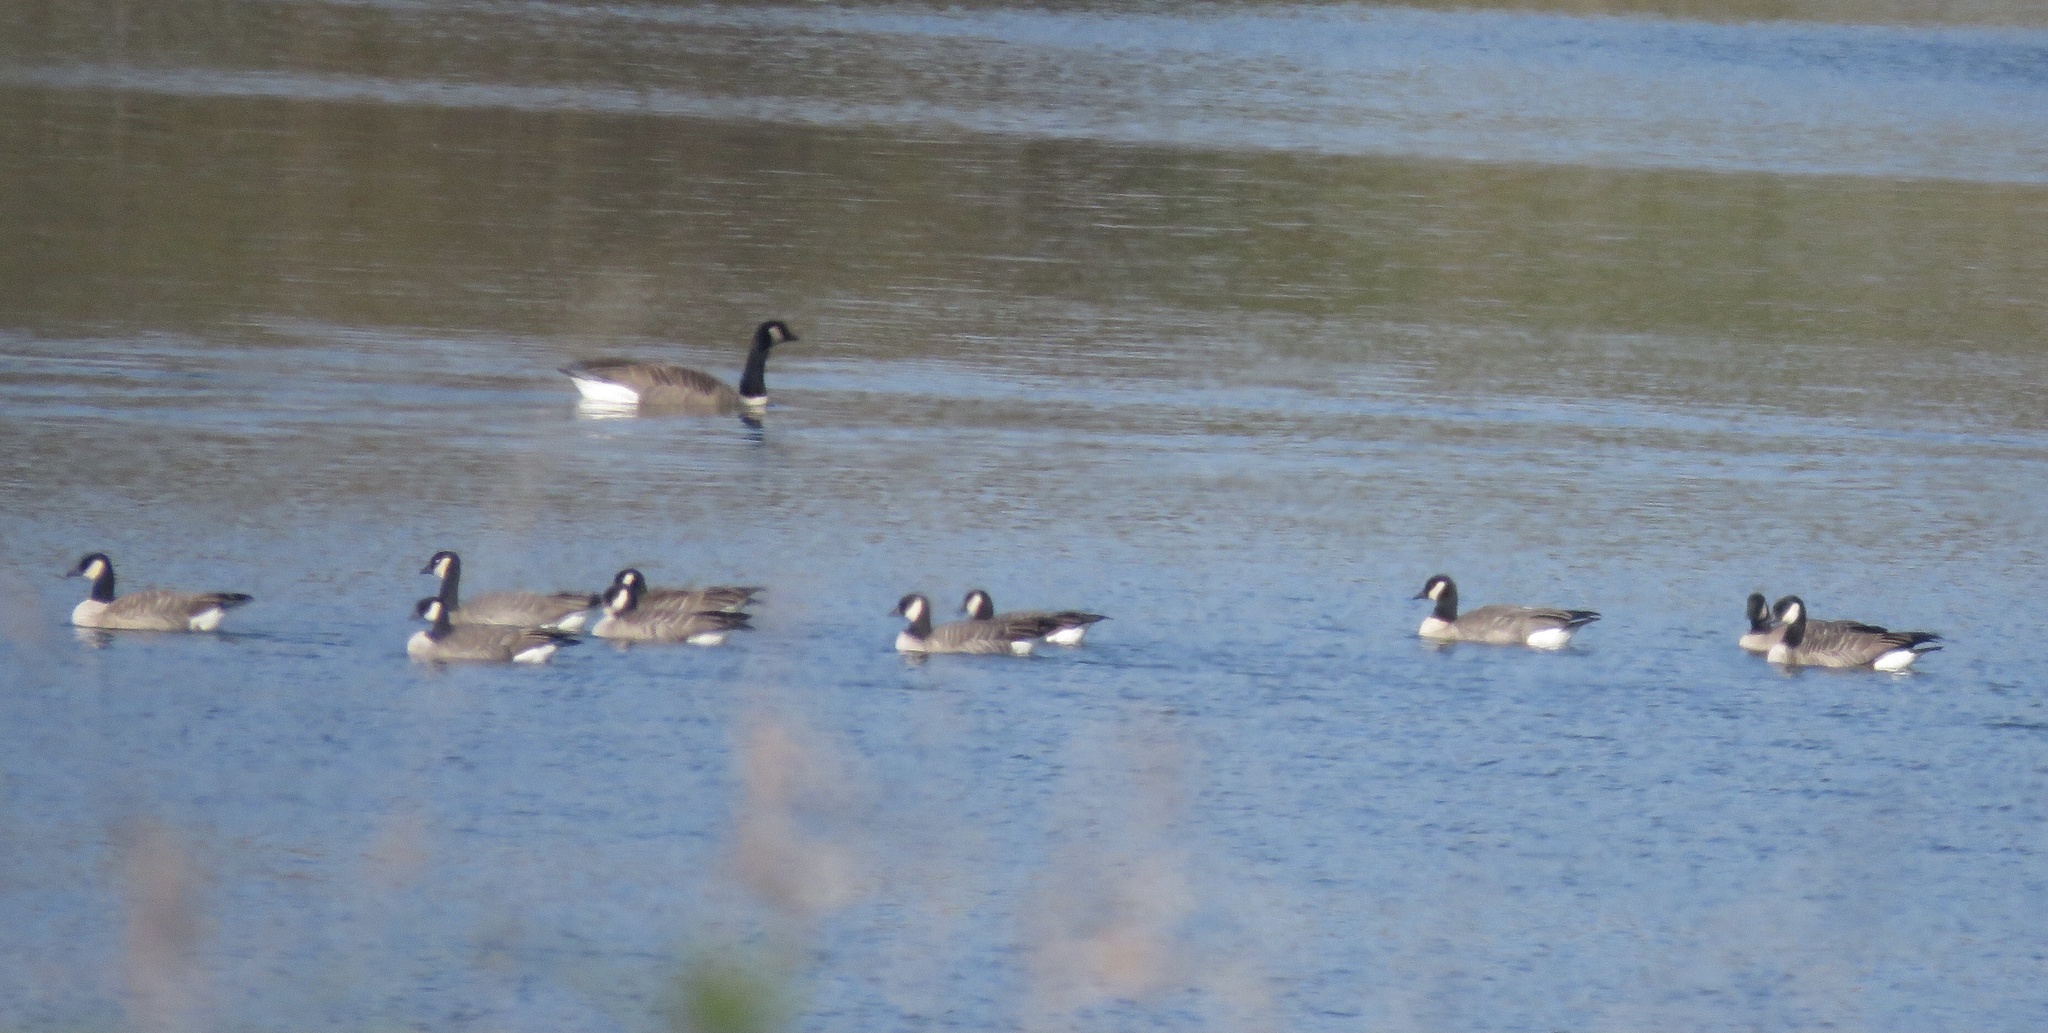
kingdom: Animalia
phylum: Chordata
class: Aves
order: Anseriformes
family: Anatidae
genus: Branta
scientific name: Branta hutchinsii
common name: Cackling goose
